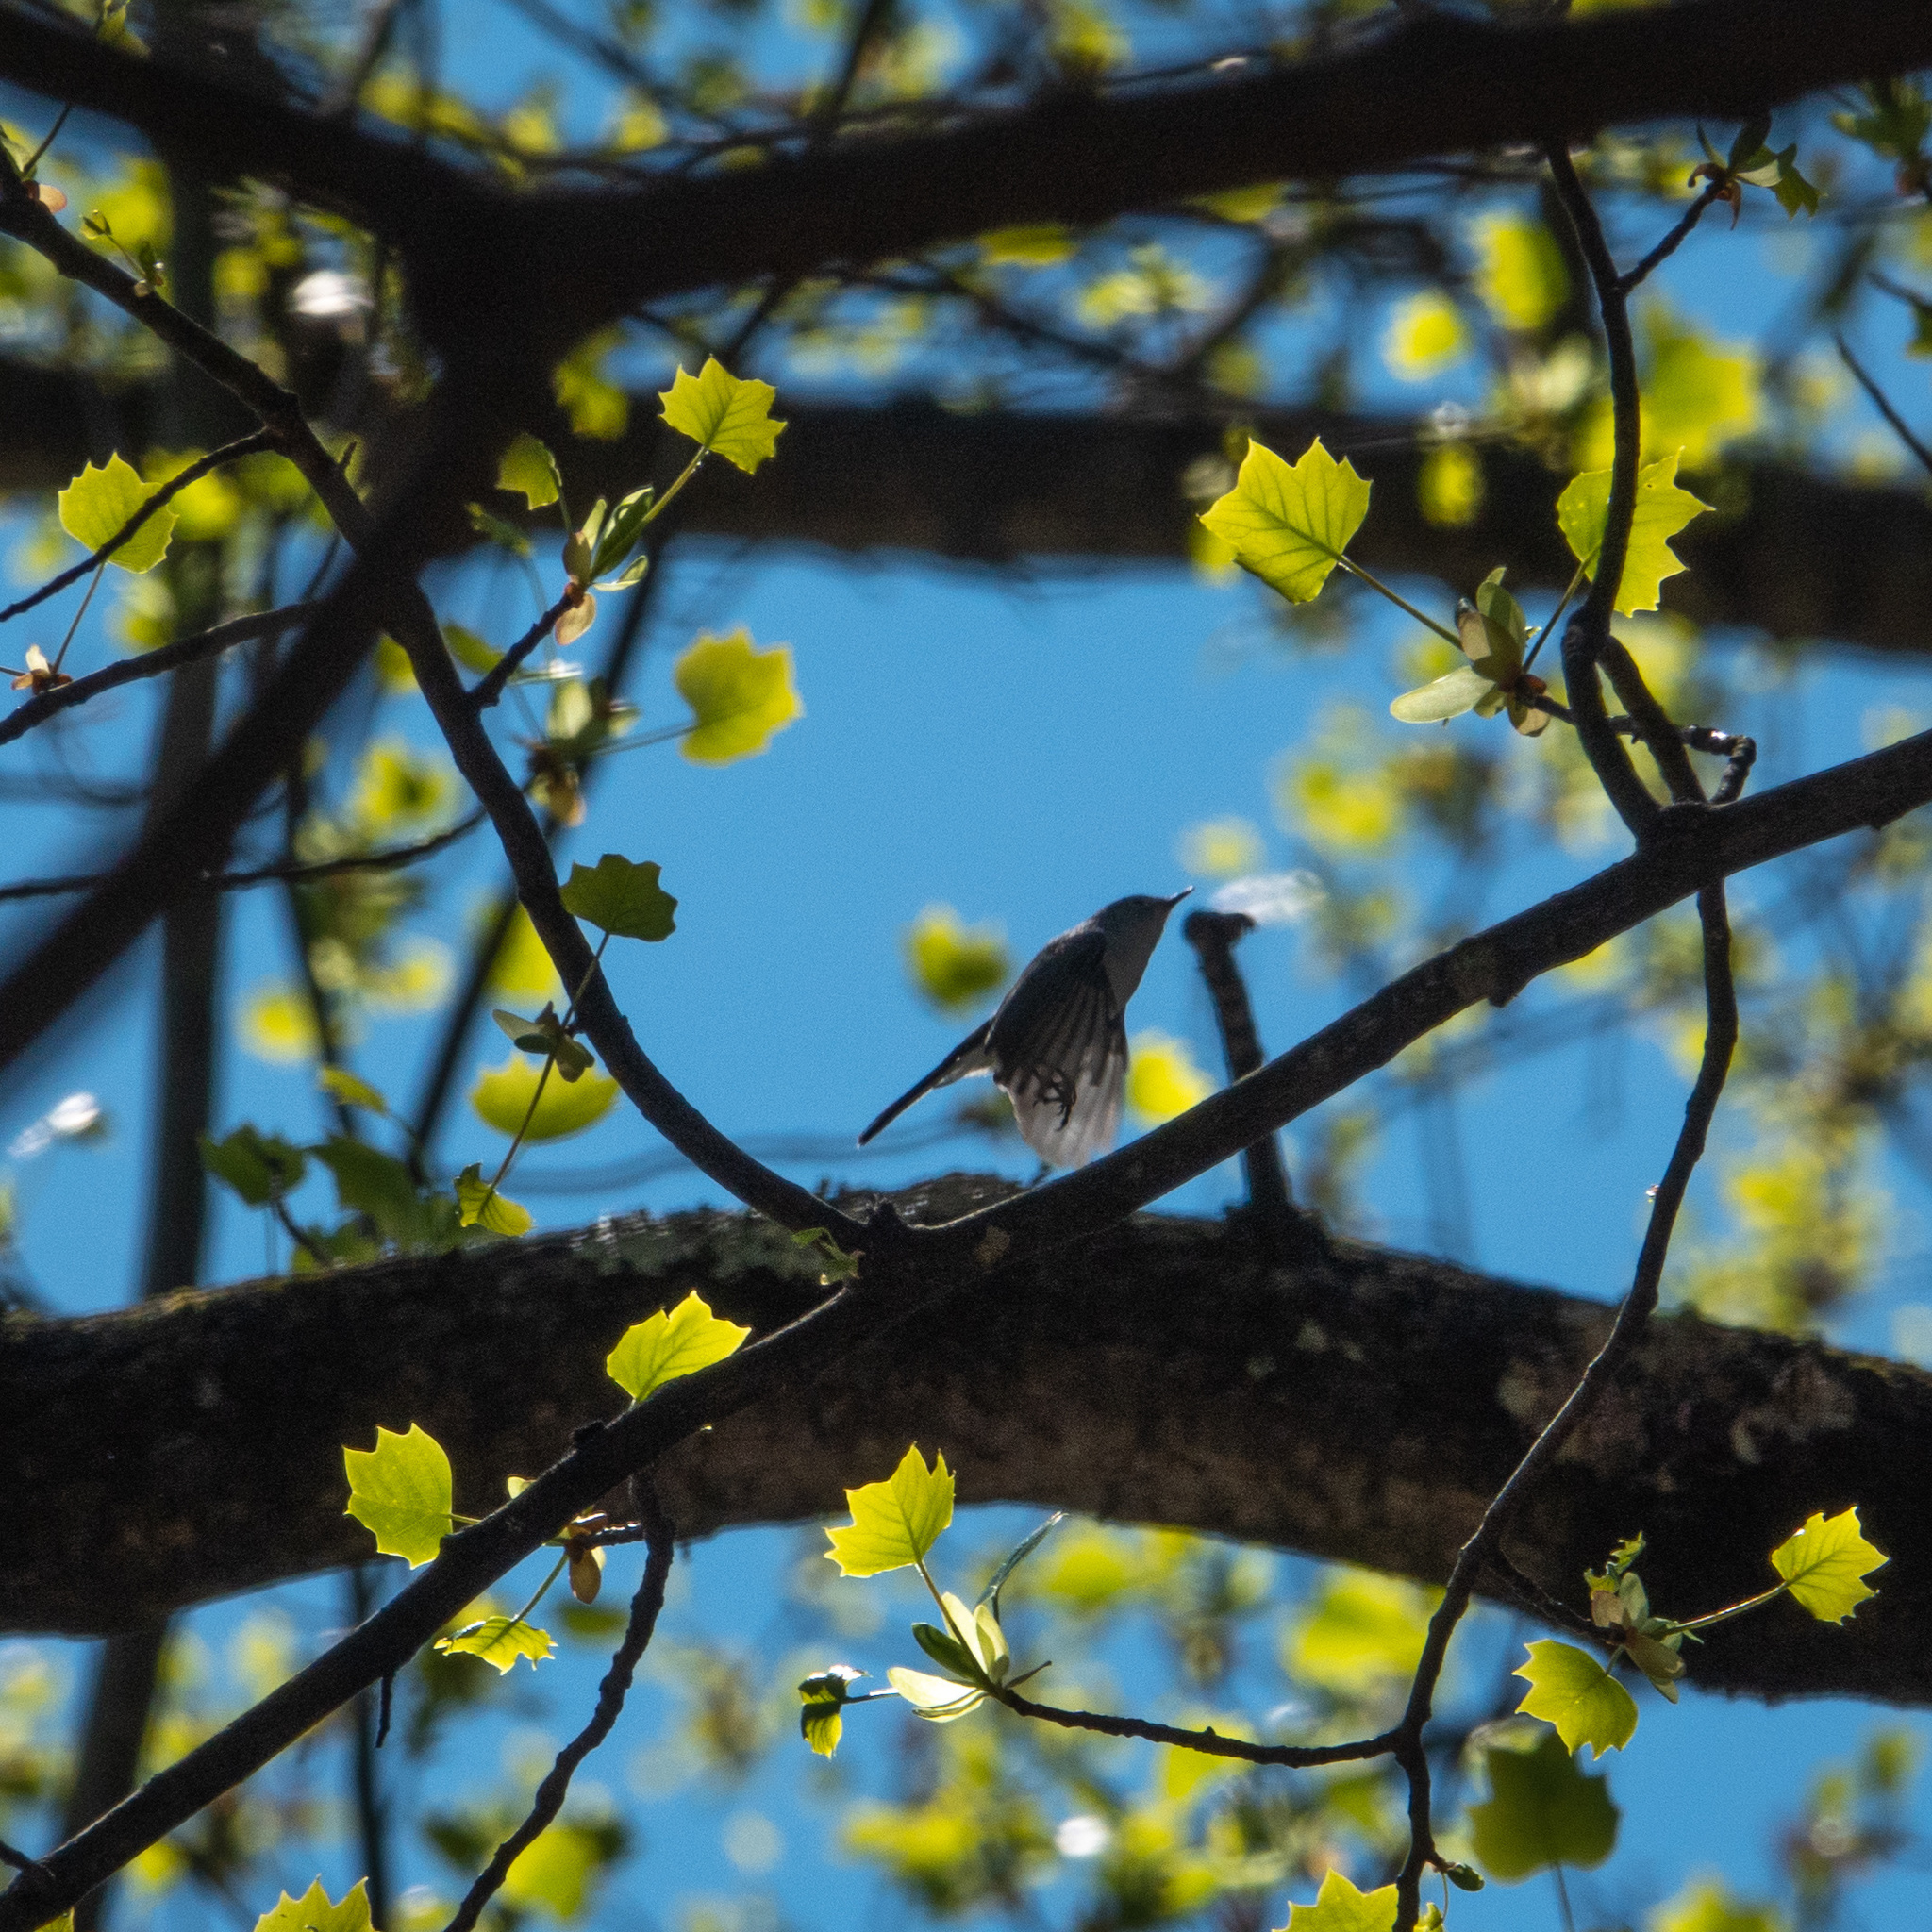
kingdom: Animalia
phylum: Chordata
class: Aves
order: Passeriformes
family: Polioptilidae
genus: Polioptila
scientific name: Polioptila caerulea
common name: Blue-gray gnatcatcher
